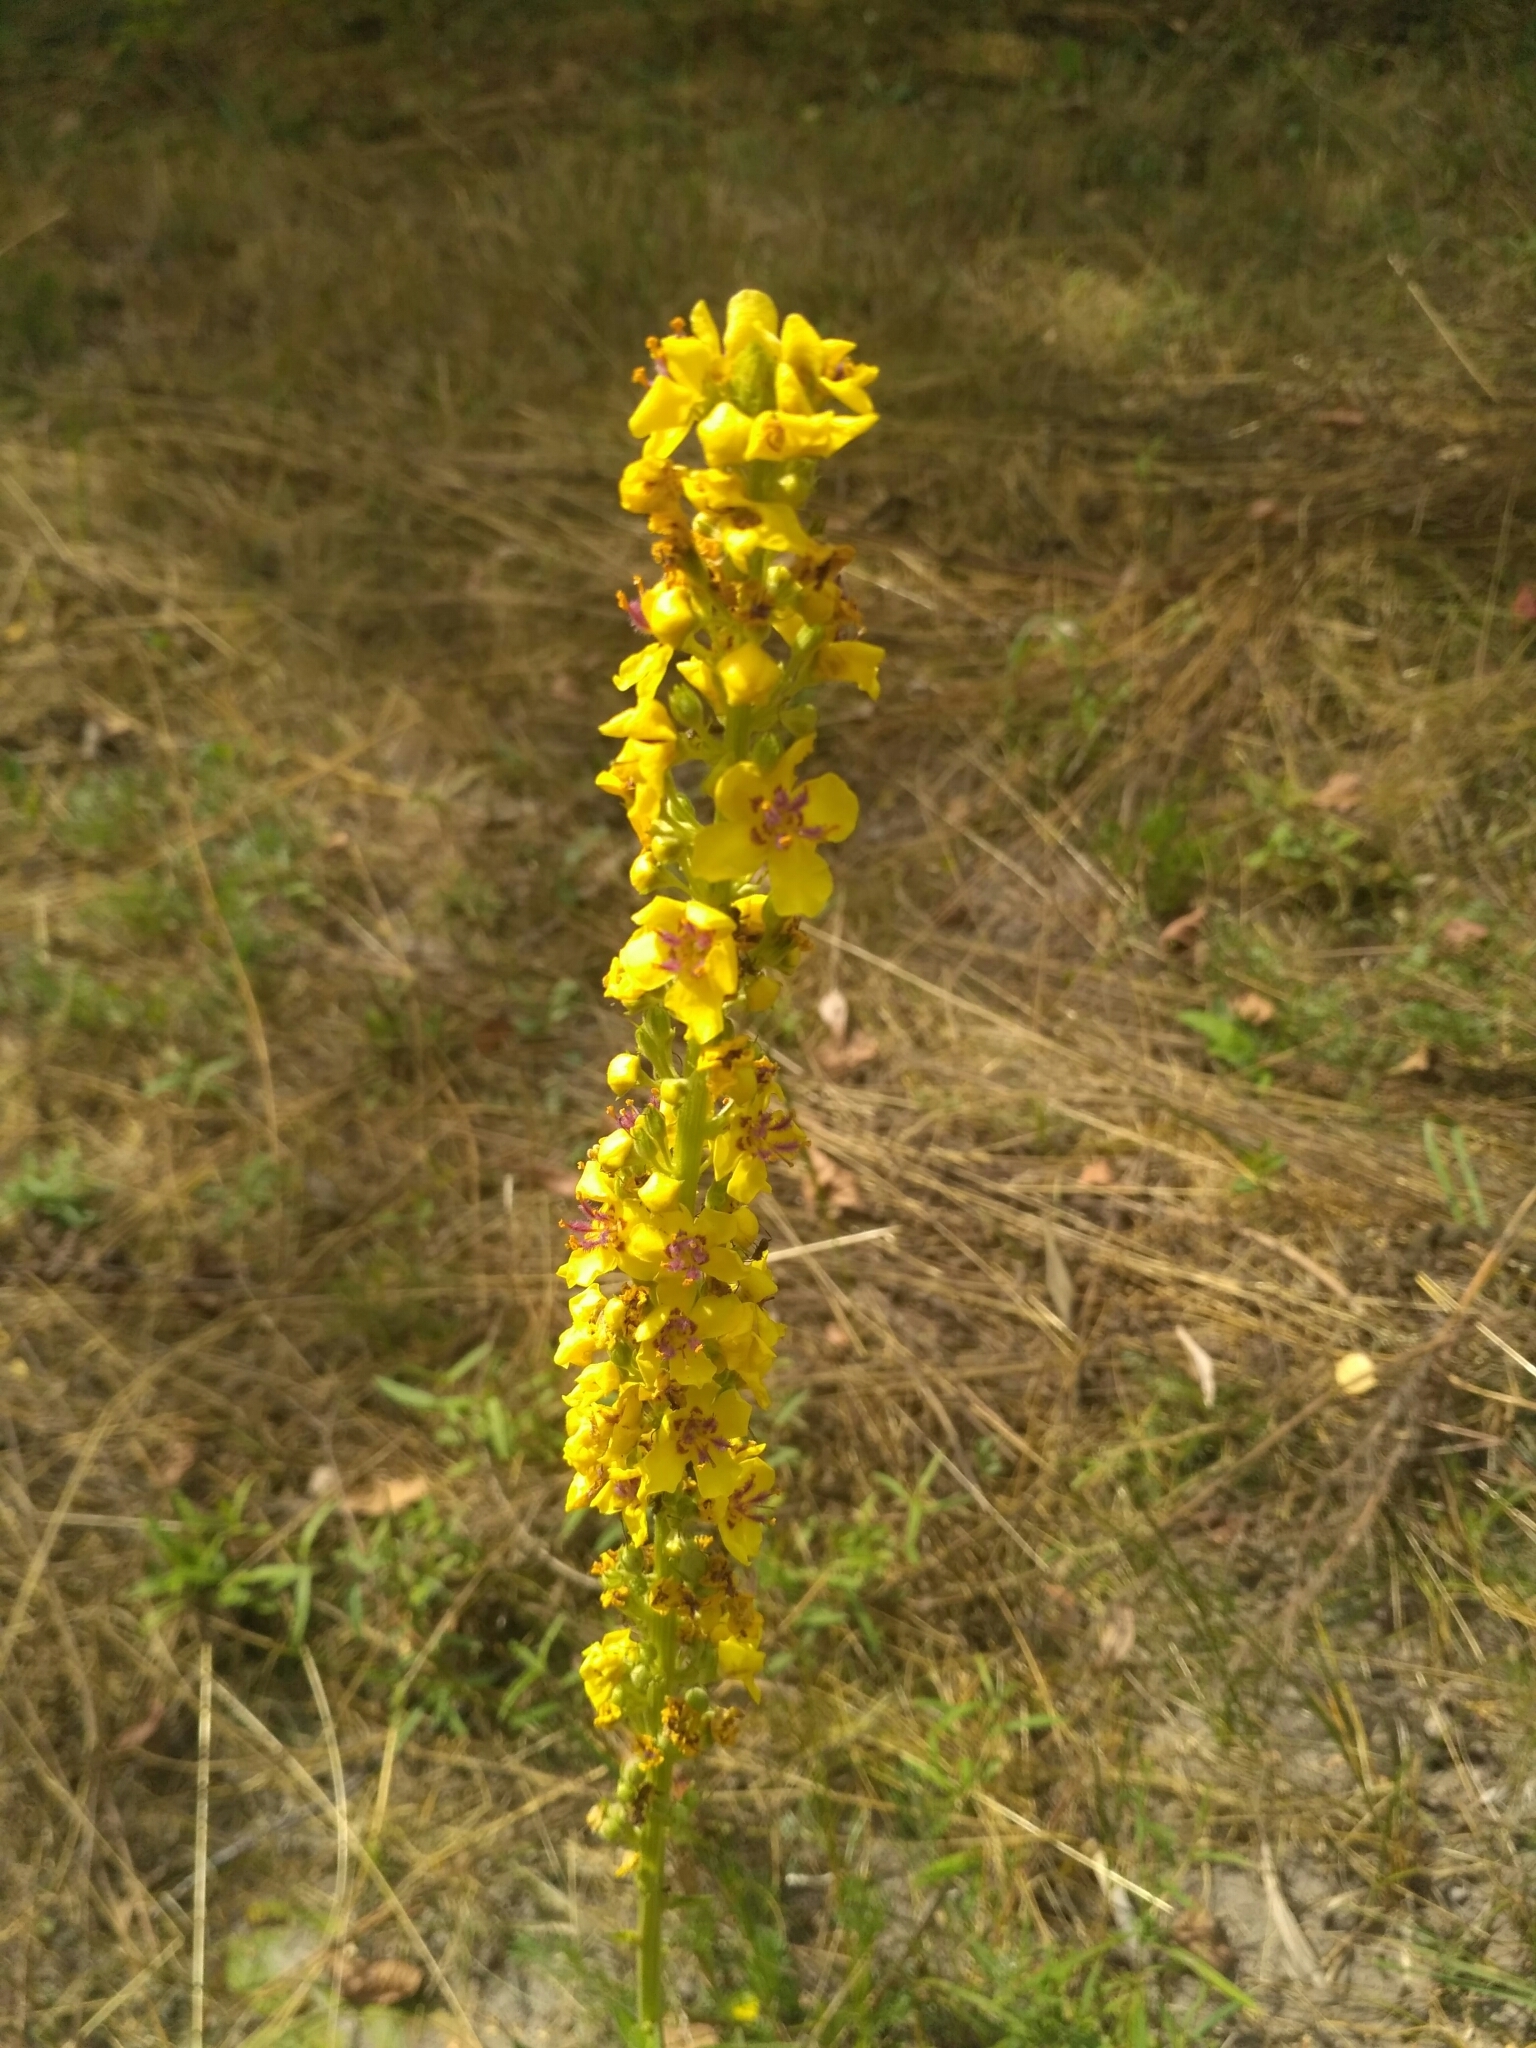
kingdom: Plantae
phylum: Tracheophyta
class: Magnoliopsida
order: Lamiales
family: Scrophulariaceae
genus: Verbascum
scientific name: Verbascum nigrum
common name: Dark mullein
